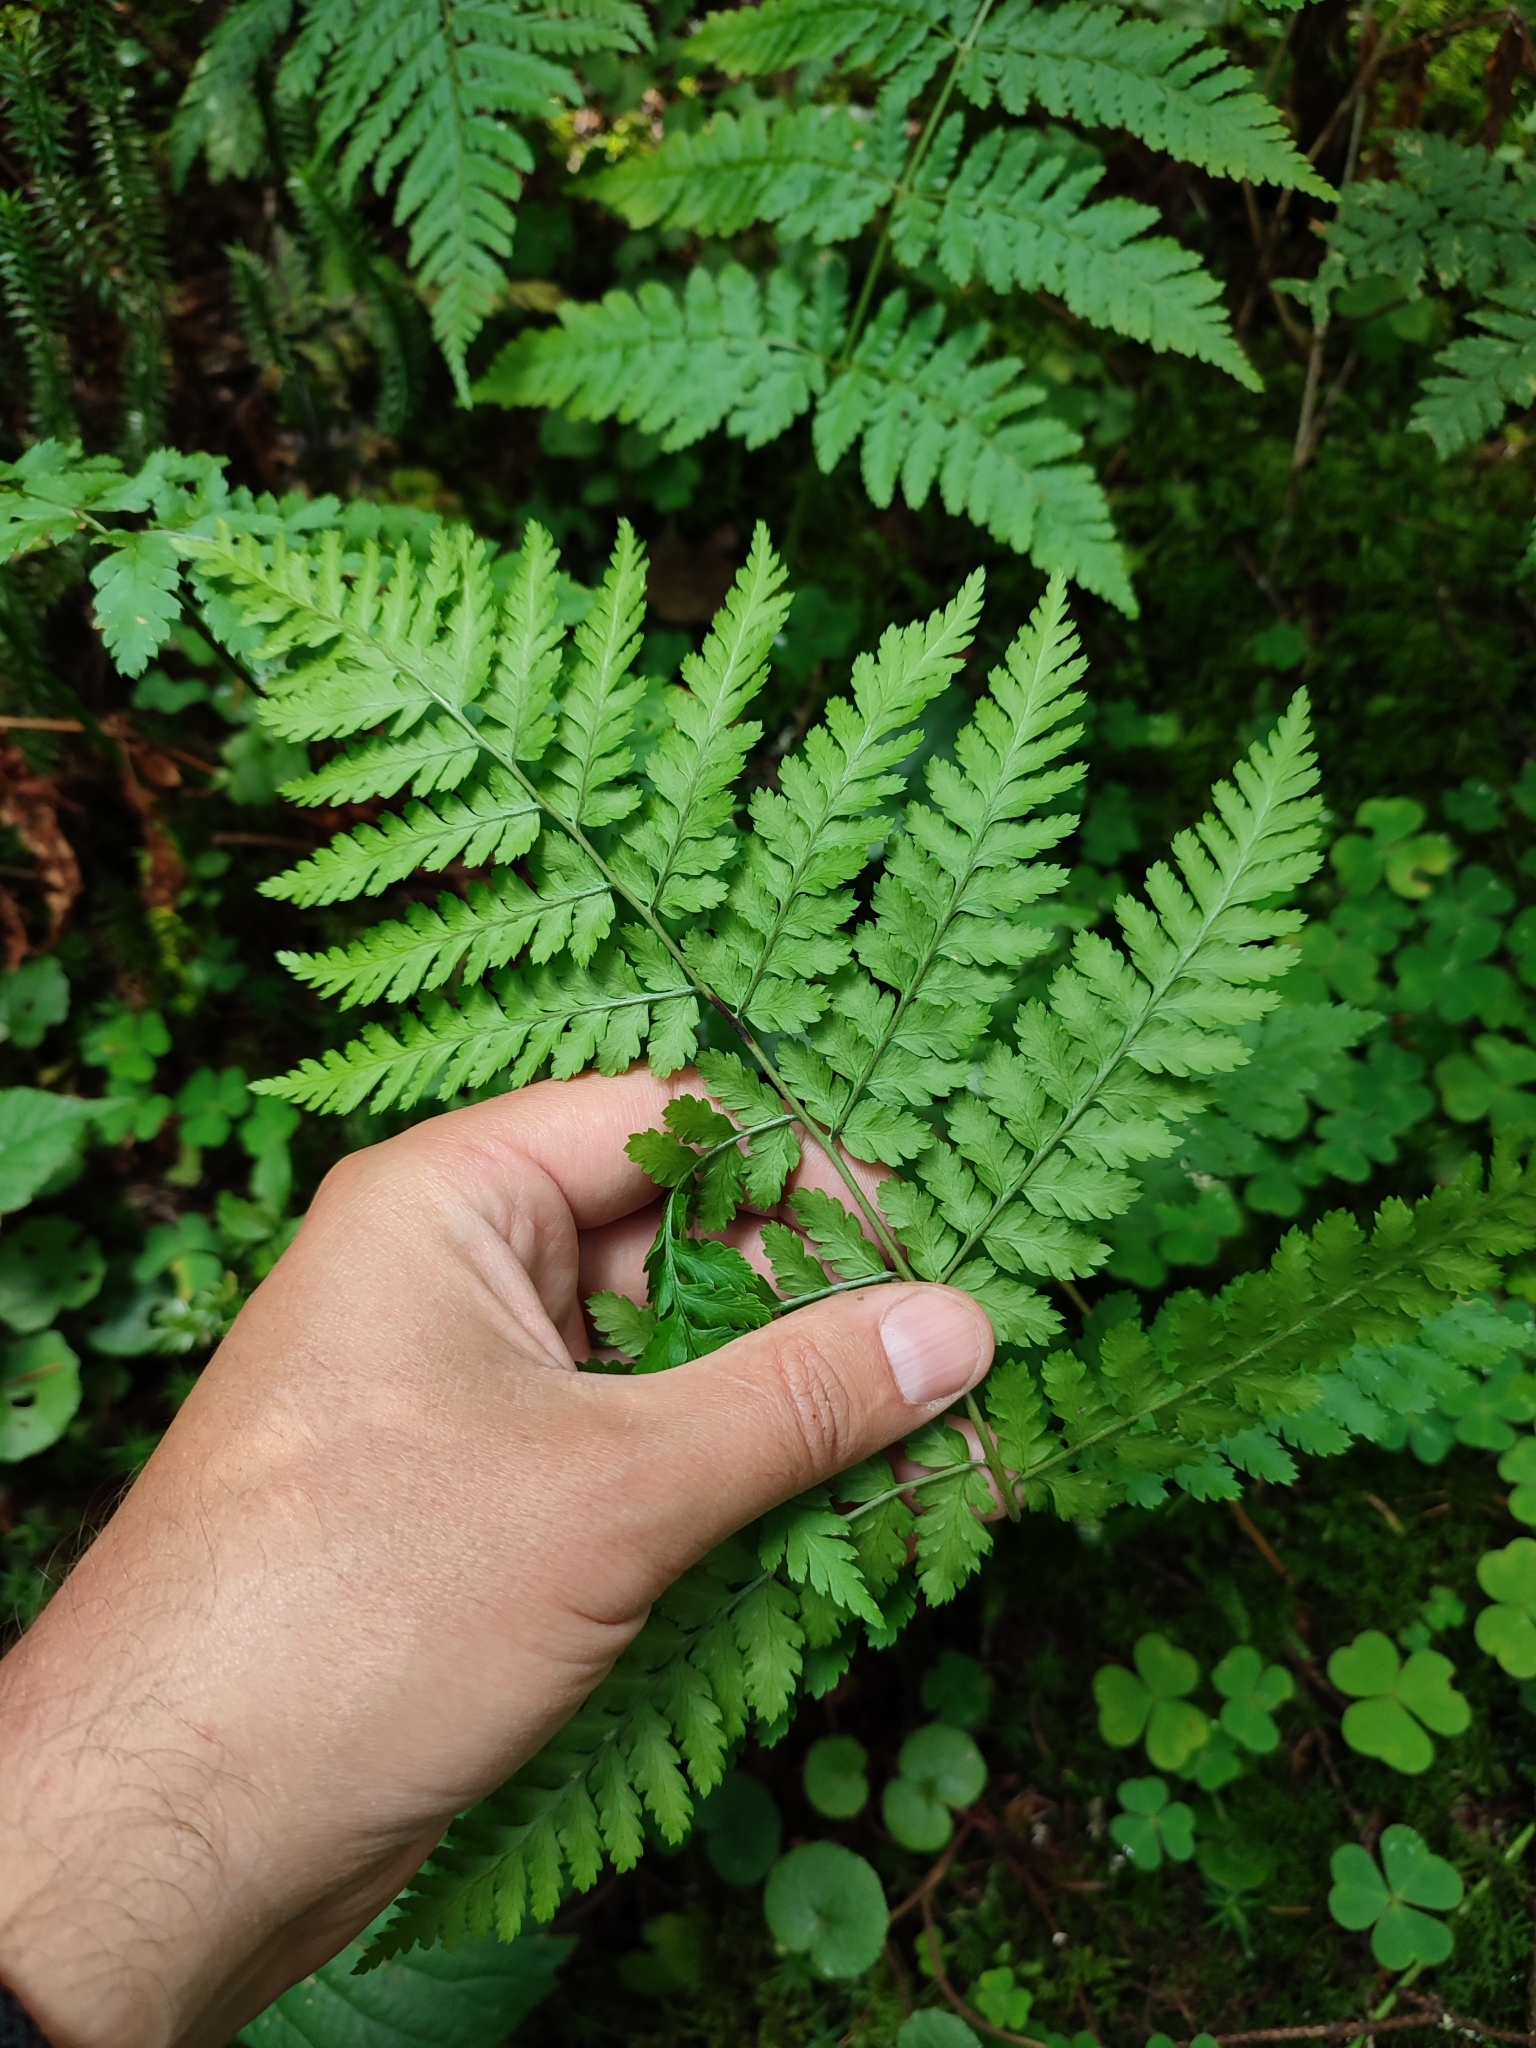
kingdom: Plantae
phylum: Tracheophyta
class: Polypodiopsida
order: Polypodiales
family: Dryopteridaceae
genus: Dryopteris
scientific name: Dryopteris carthusiana
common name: Narrow buckler-fern
